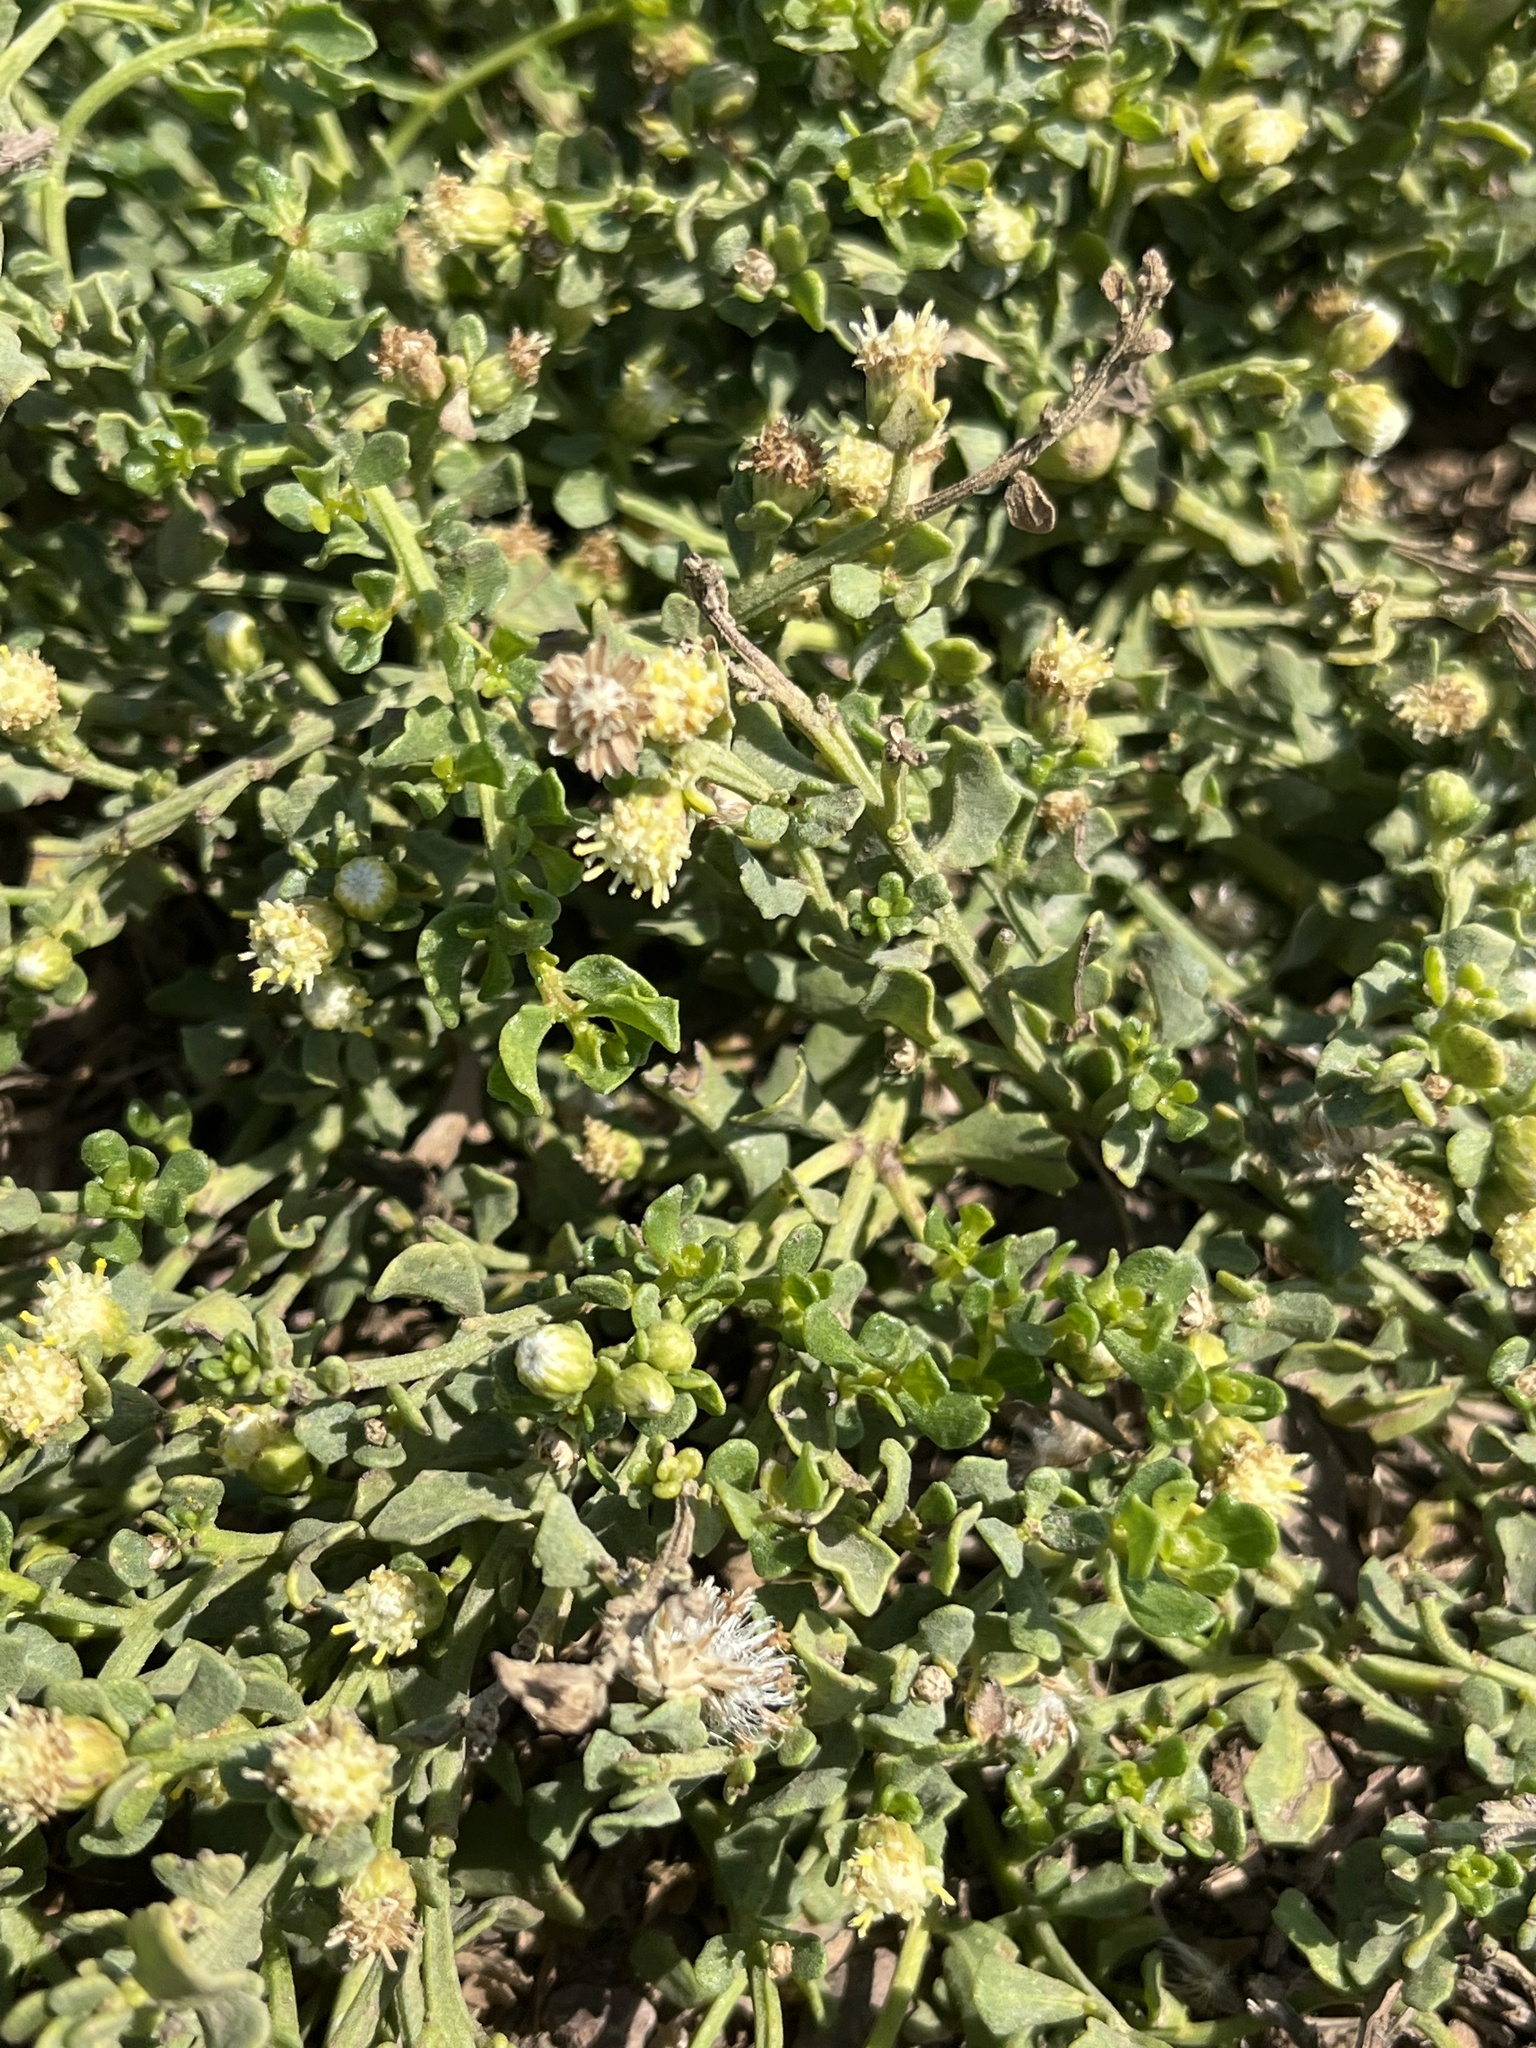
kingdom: Plantae
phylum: Tracheophyta
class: Magnoliopsida
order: Asterales
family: Asteraceae
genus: Baccharis
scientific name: Baccharis pilularis
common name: Coyotebrush
